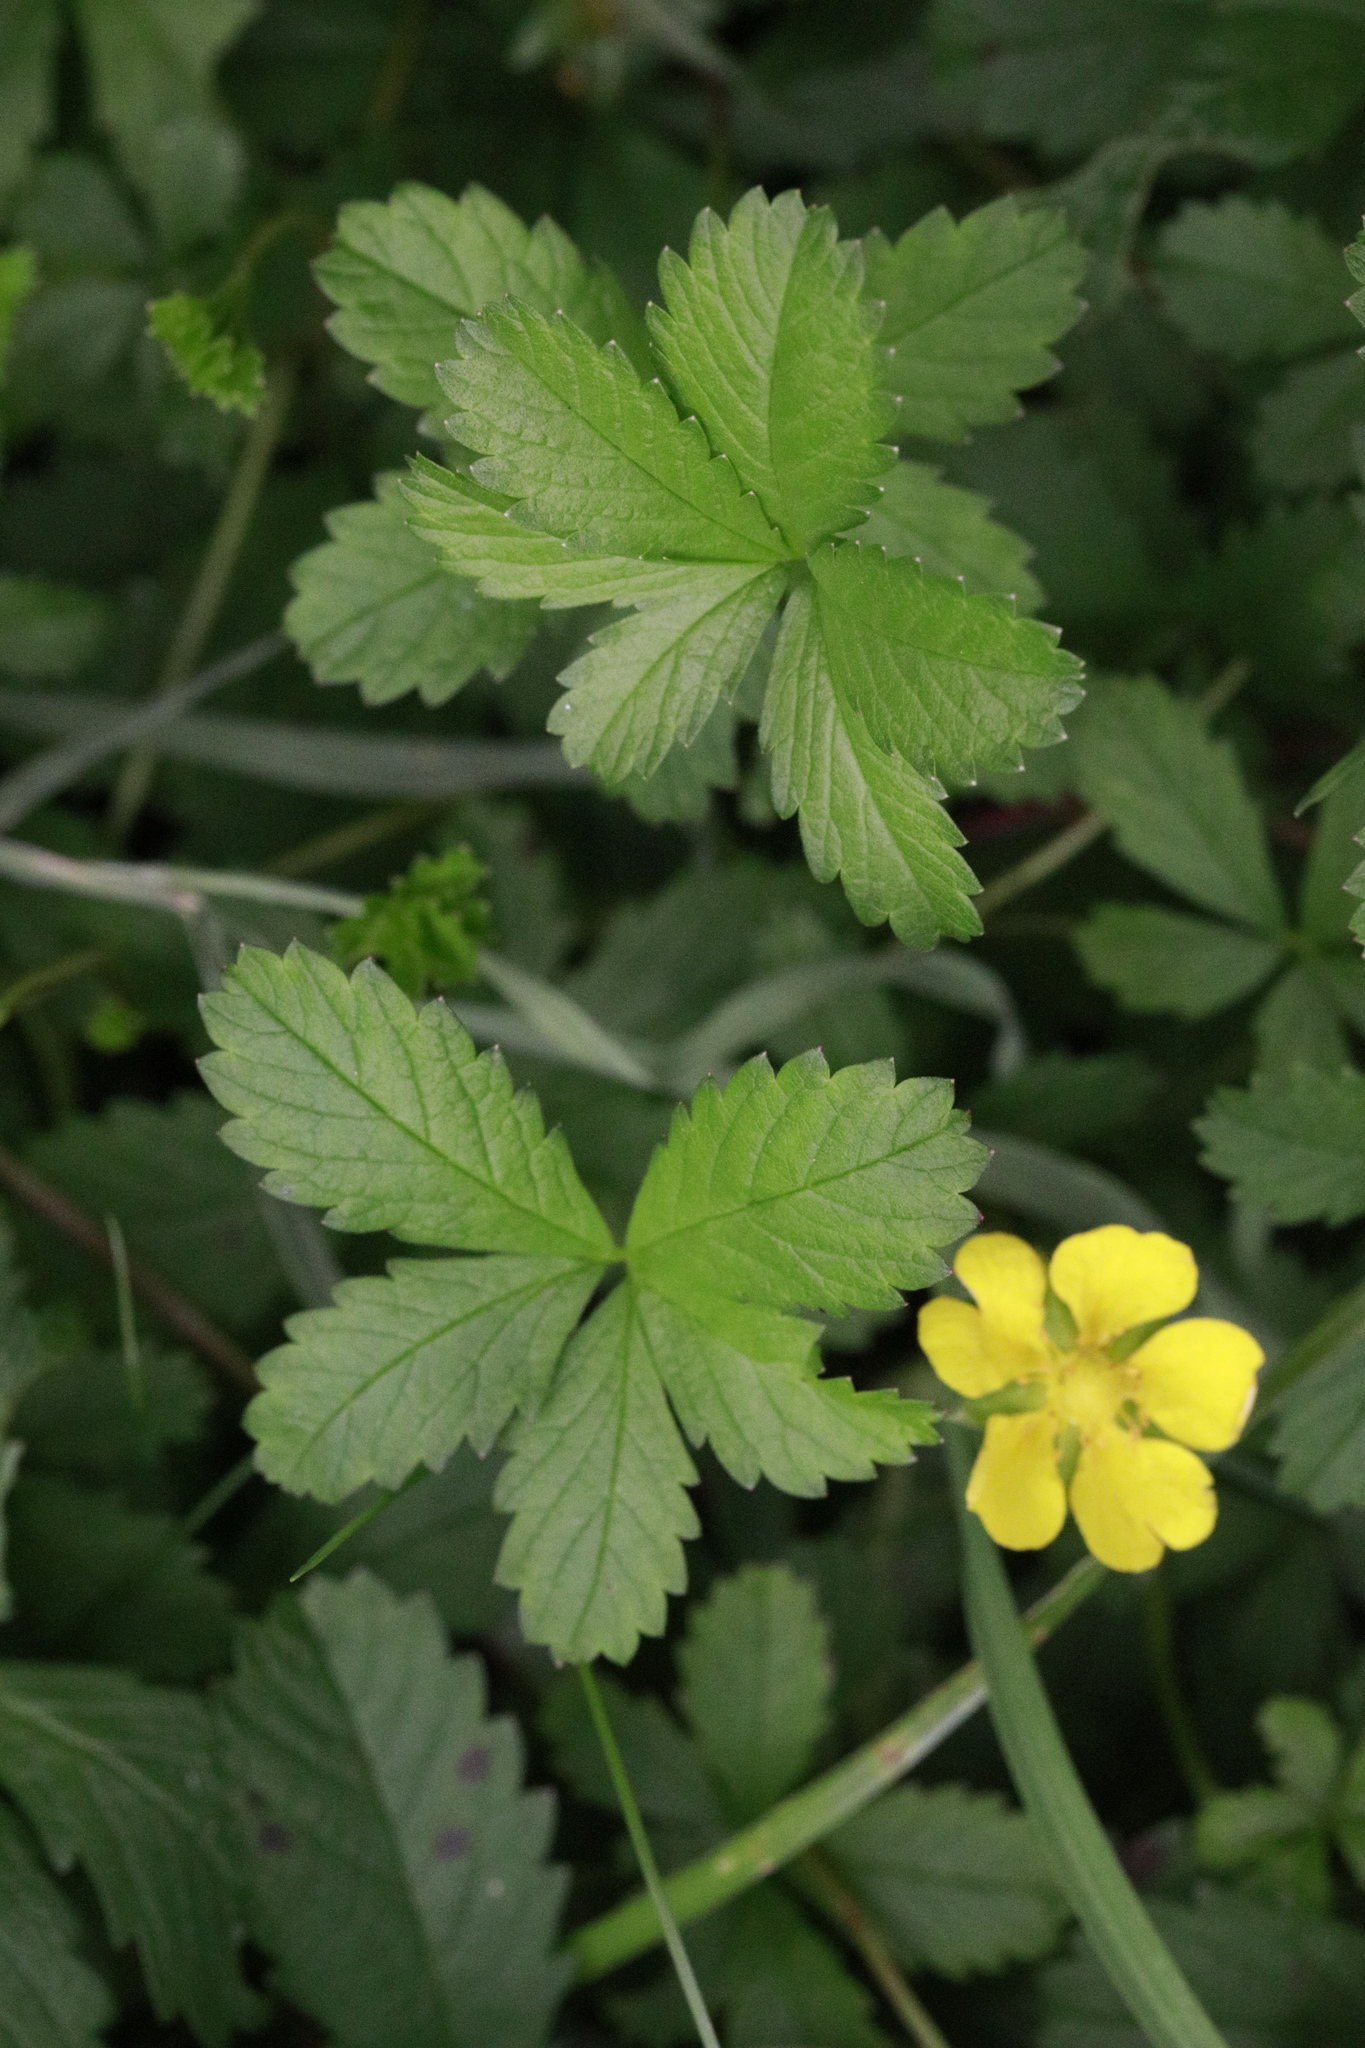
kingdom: Plantae
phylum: Tracheophyta
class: Magnoliopsida
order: Rosales
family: Rosaceae
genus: Potentilla
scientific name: Potentilla reptans
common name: Creeping cinquefoil
